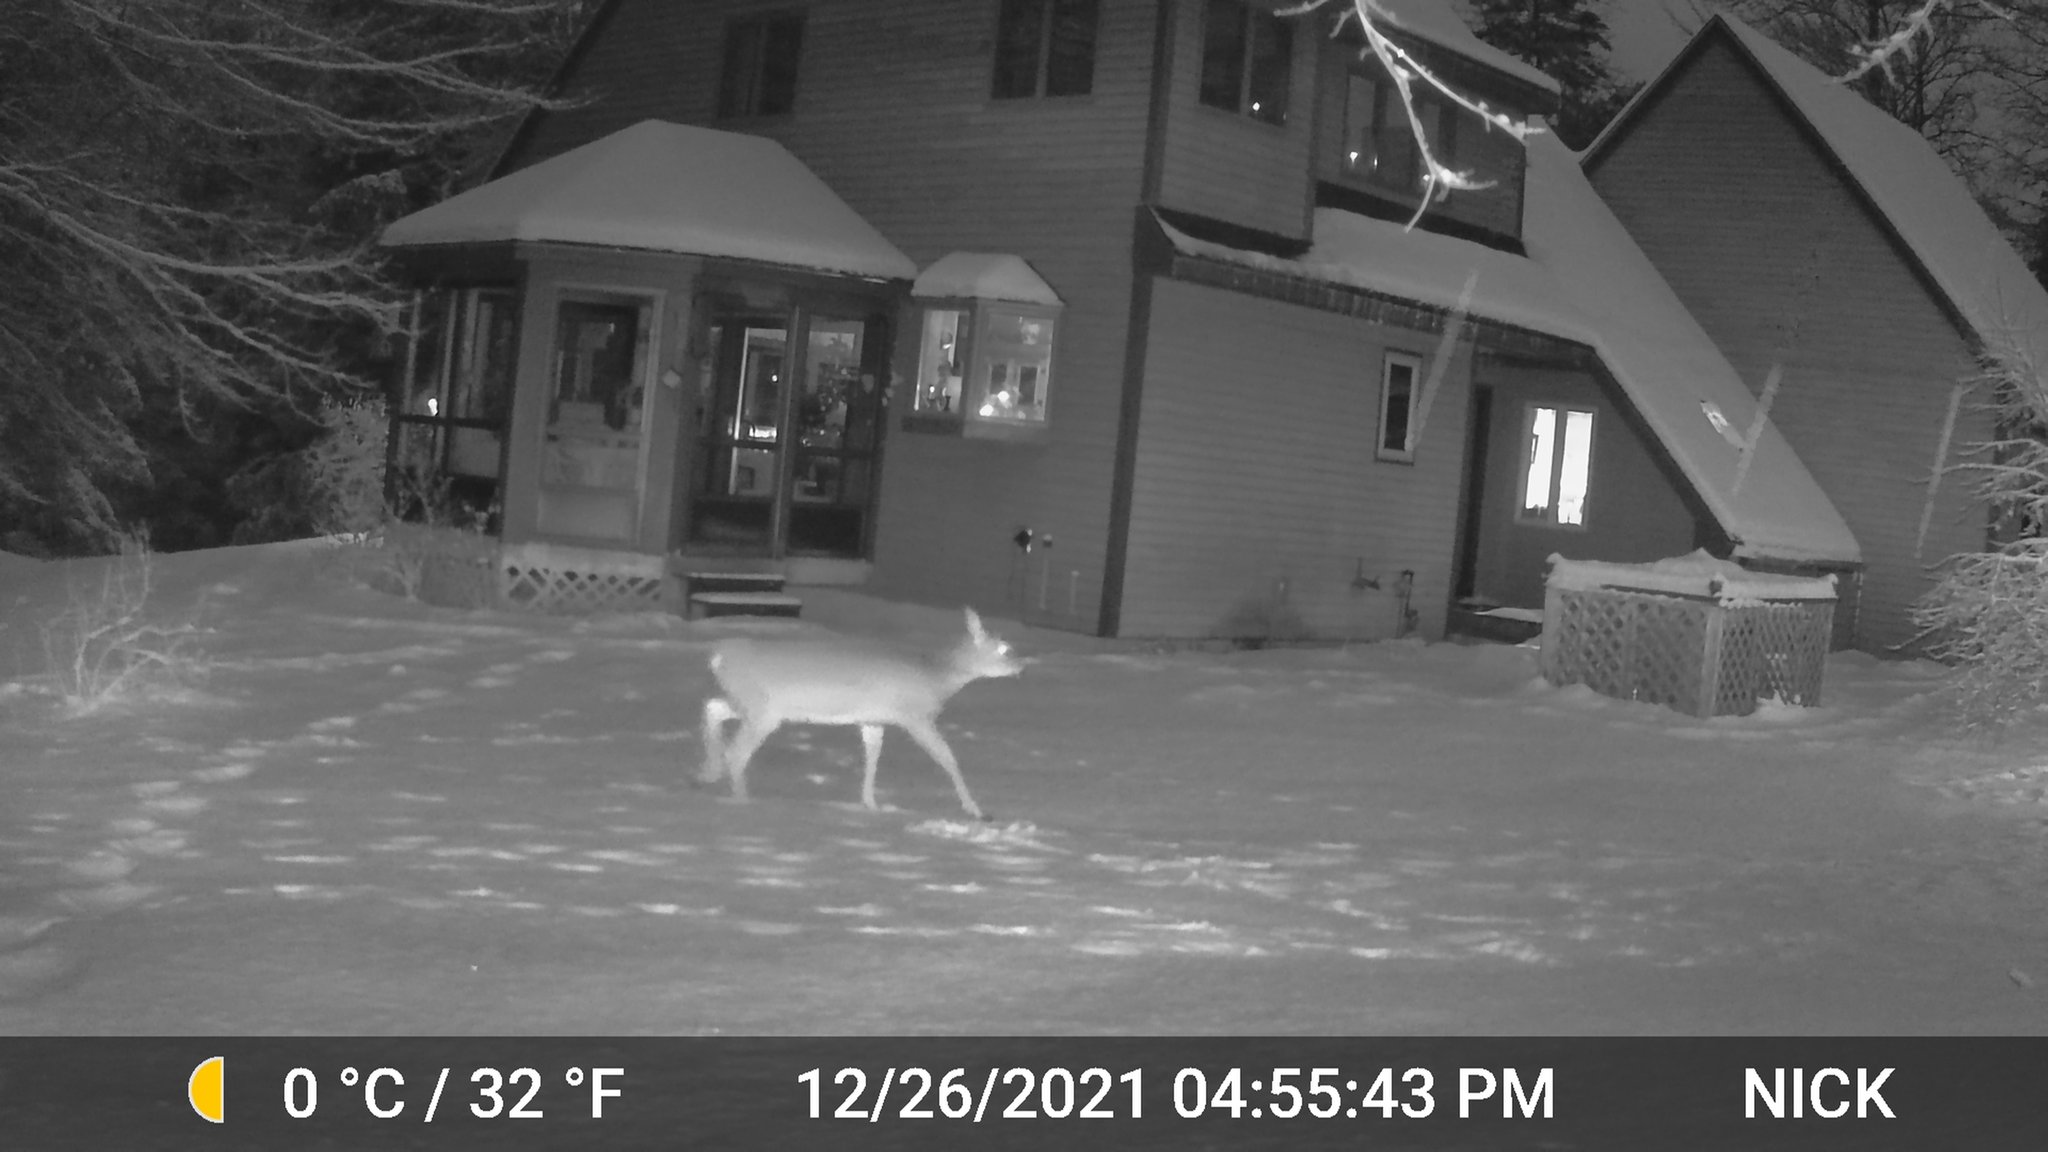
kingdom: Animalia
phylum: Chordata
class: Mammalia
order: Artiodactyla
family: Cervidae
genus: Odocoileus
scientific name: Odocoileus virginianus
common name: White-tailed deer
